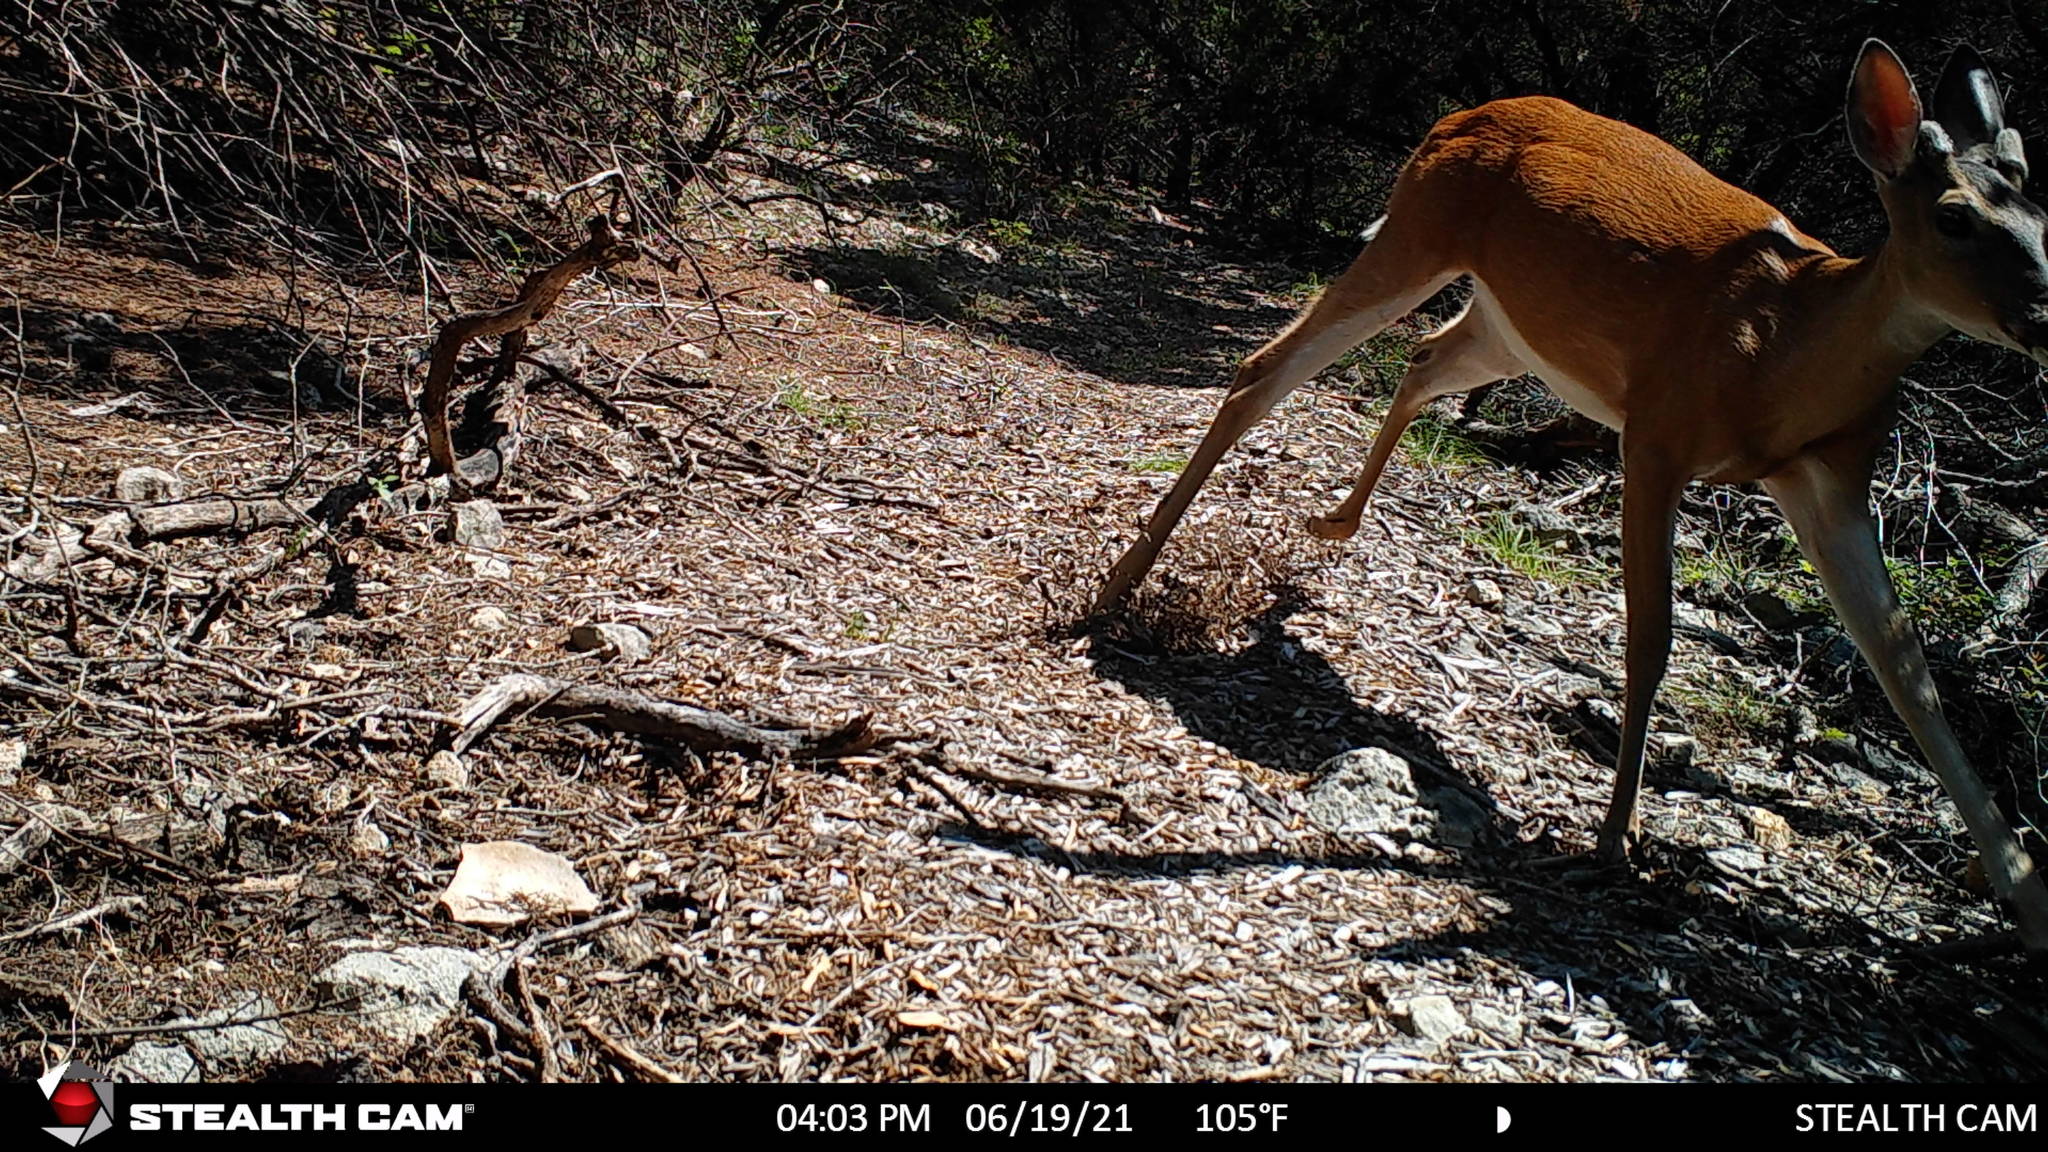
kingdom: Animalia
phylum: Chordata
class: Mammalia
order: Artiodactyla
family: Cervidae
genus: Odocoileus
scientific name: Odocoileus virginianus
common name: White-tailed deer
